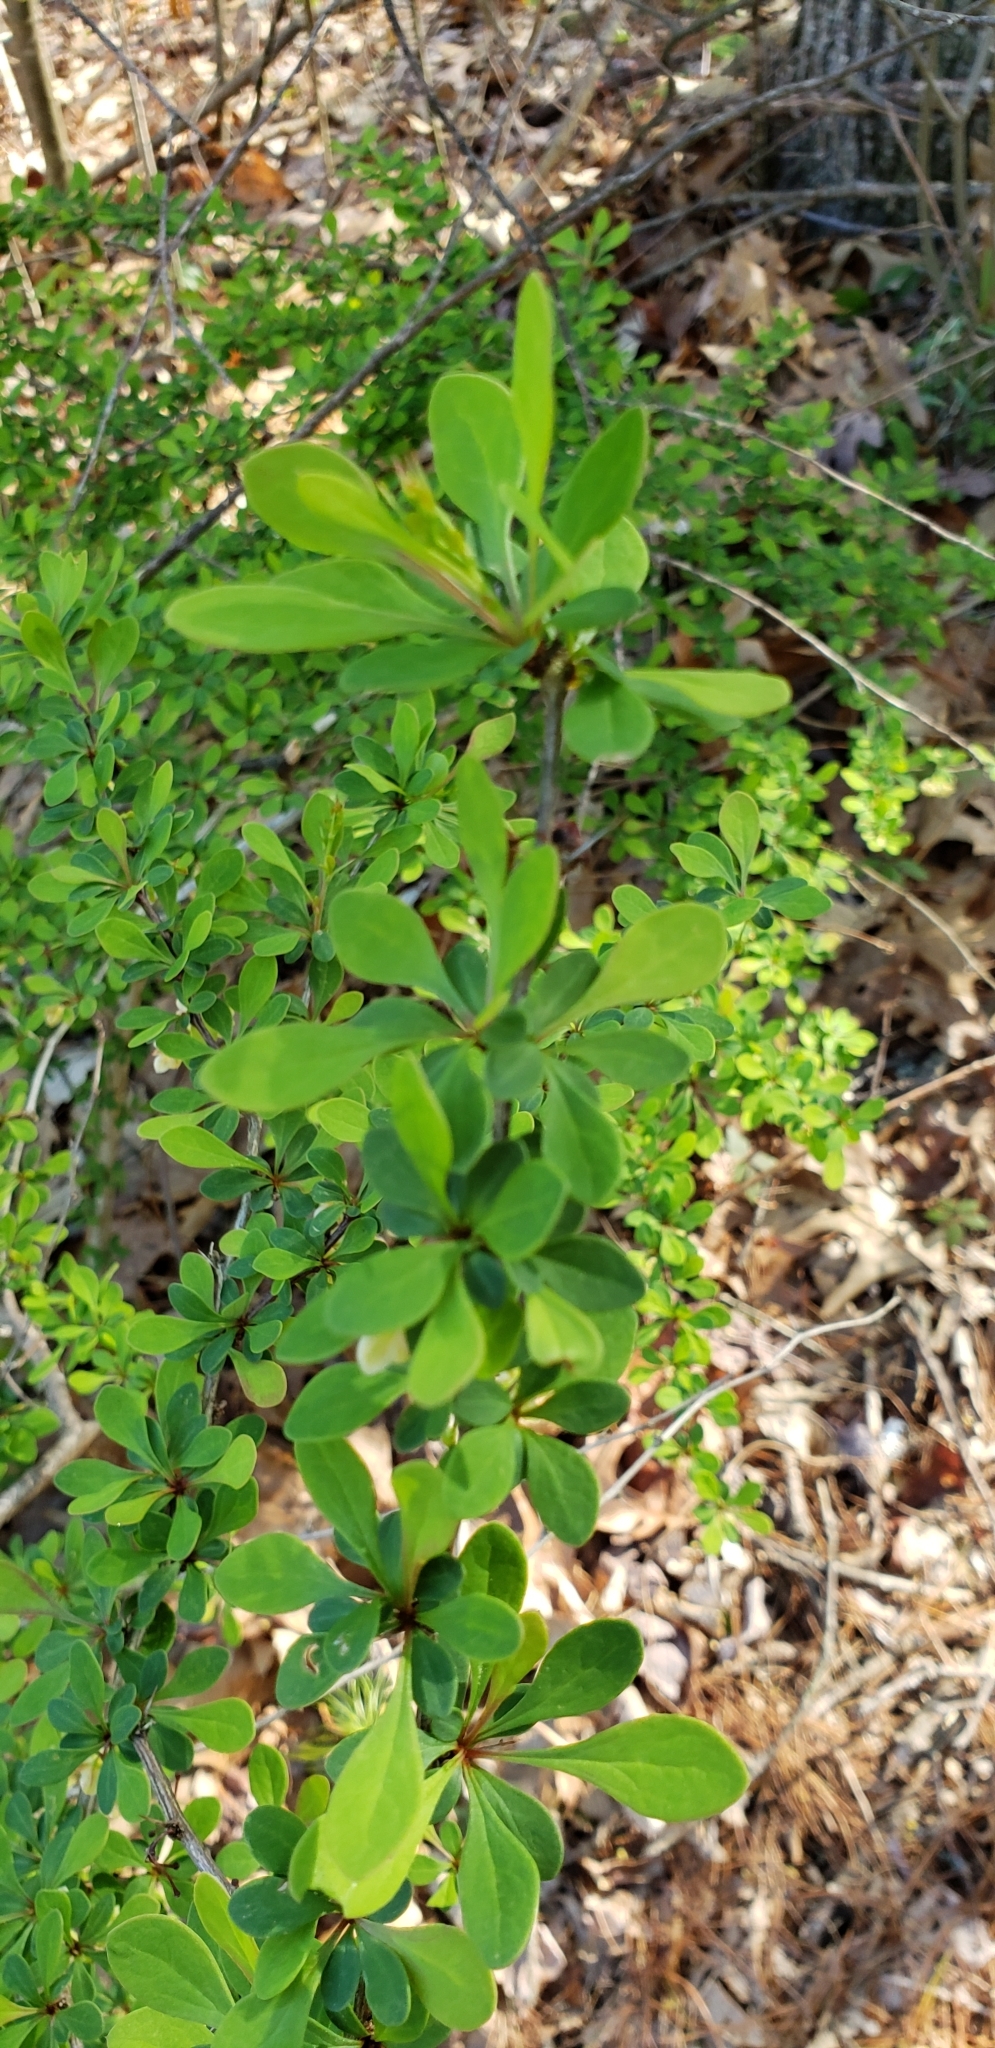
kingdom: Plantae
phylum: Tracheophyta
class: Magnoliopsida
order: Ranunculales
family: Berberidaceae
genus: Berberis
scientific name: Berberis thunbergii
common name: Japanese barberry
